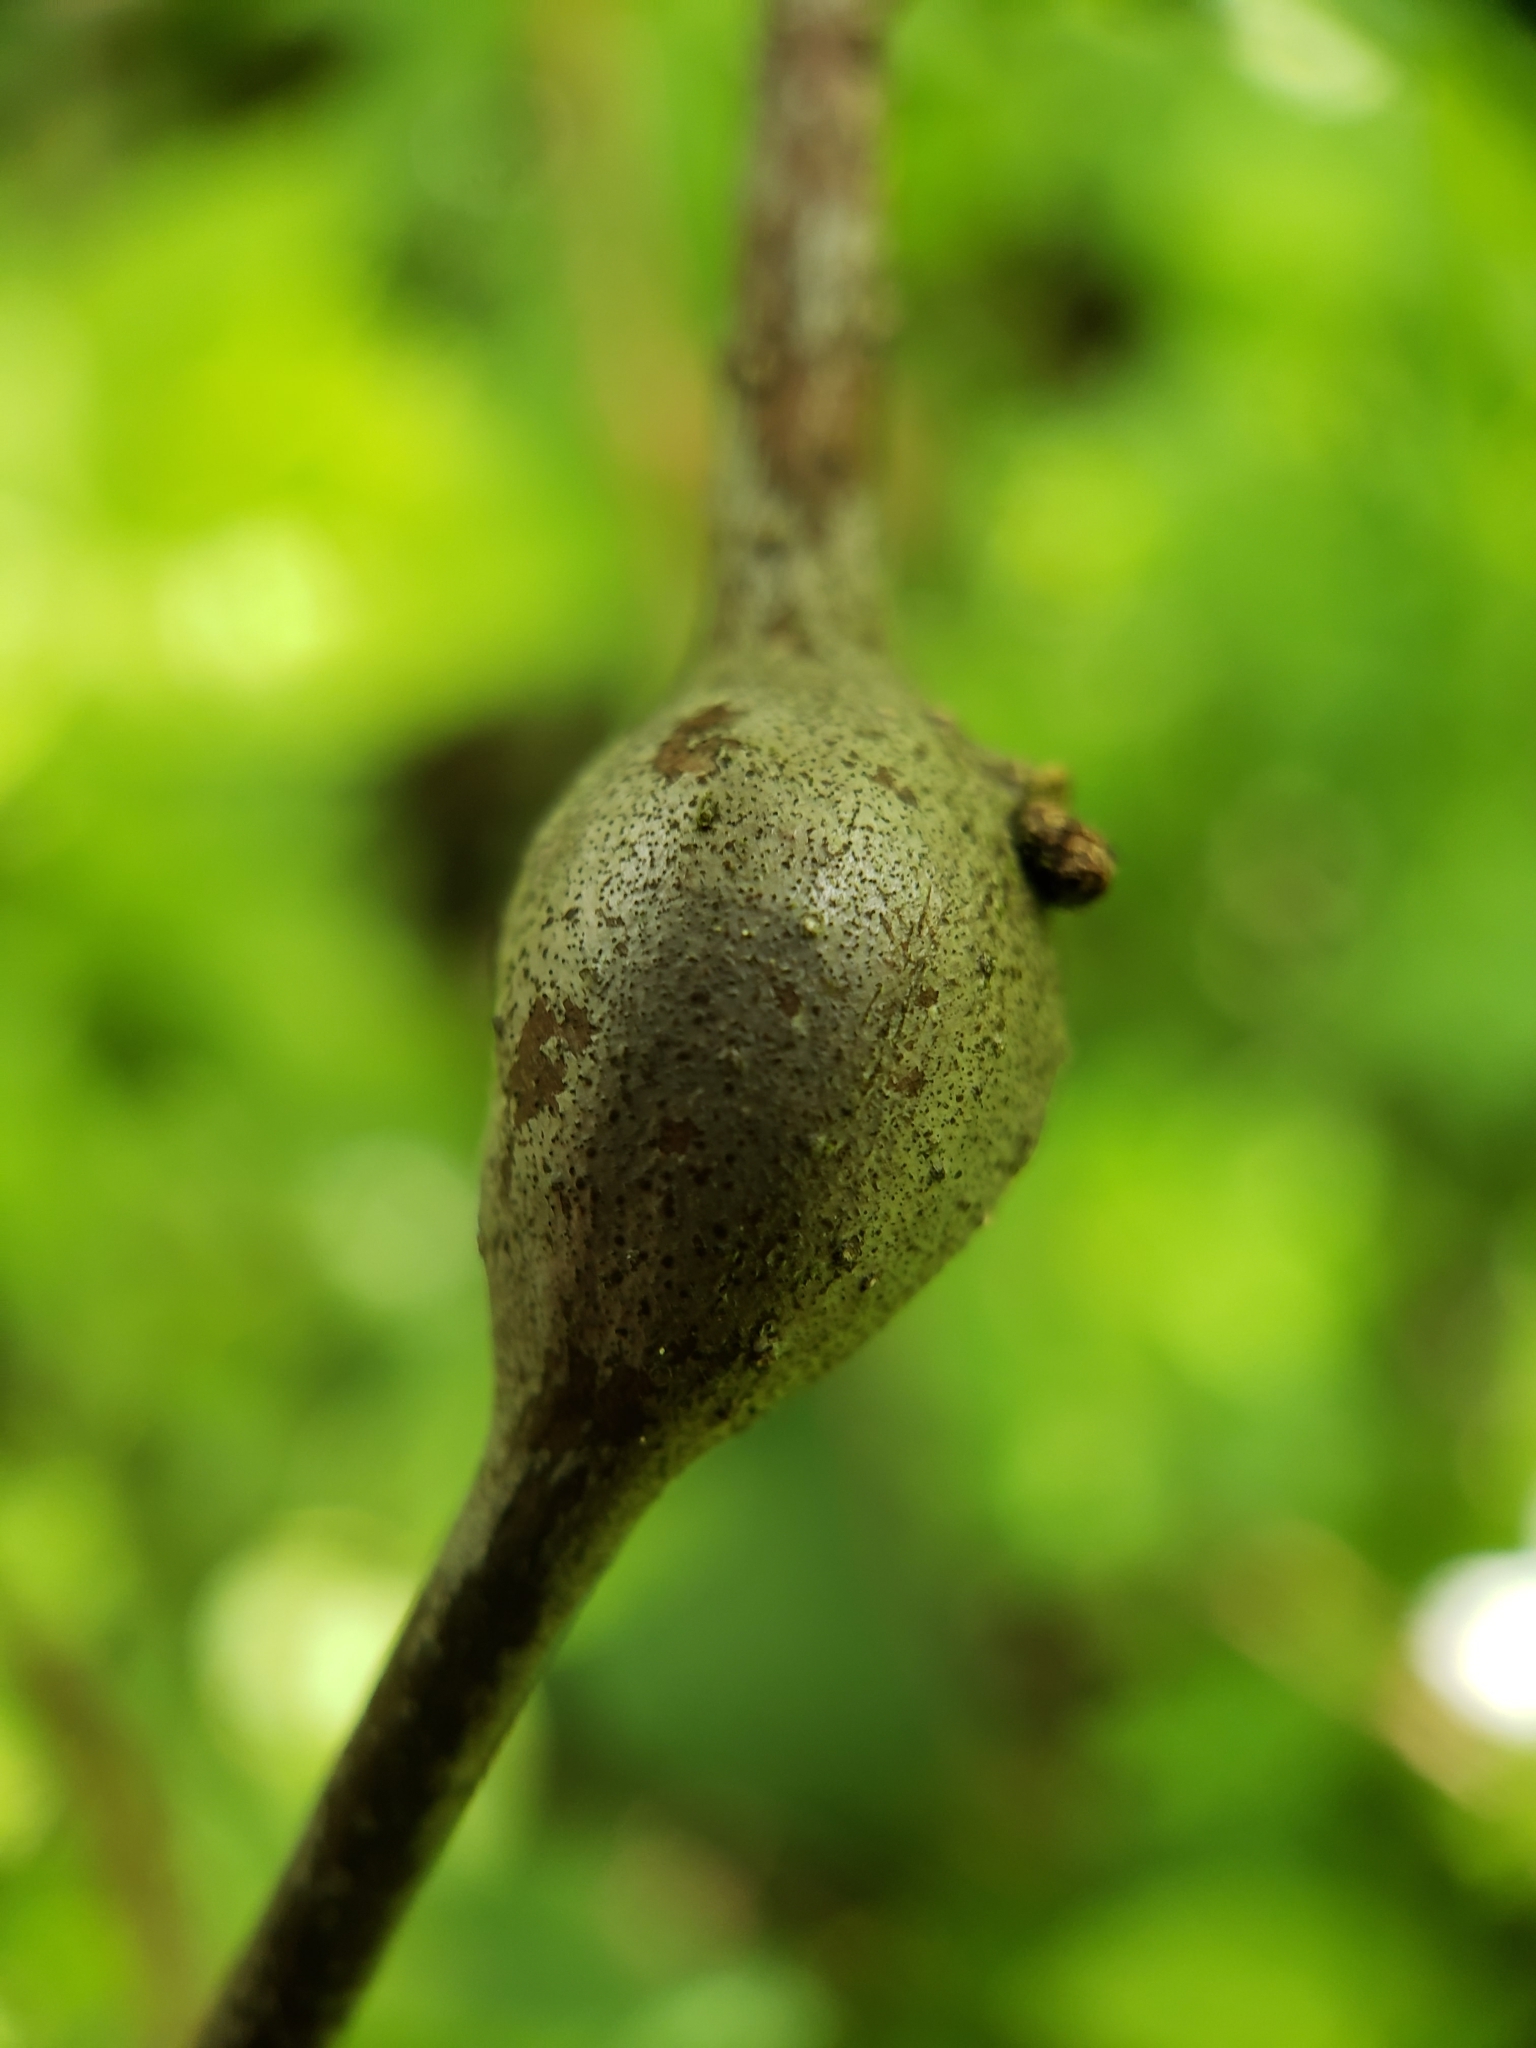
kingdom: Animalia
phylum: Arthropoda
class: Insecta
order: Hymenoptera
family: Cynipidae
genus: Zapatella
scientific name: Zapatella quercusphellos
